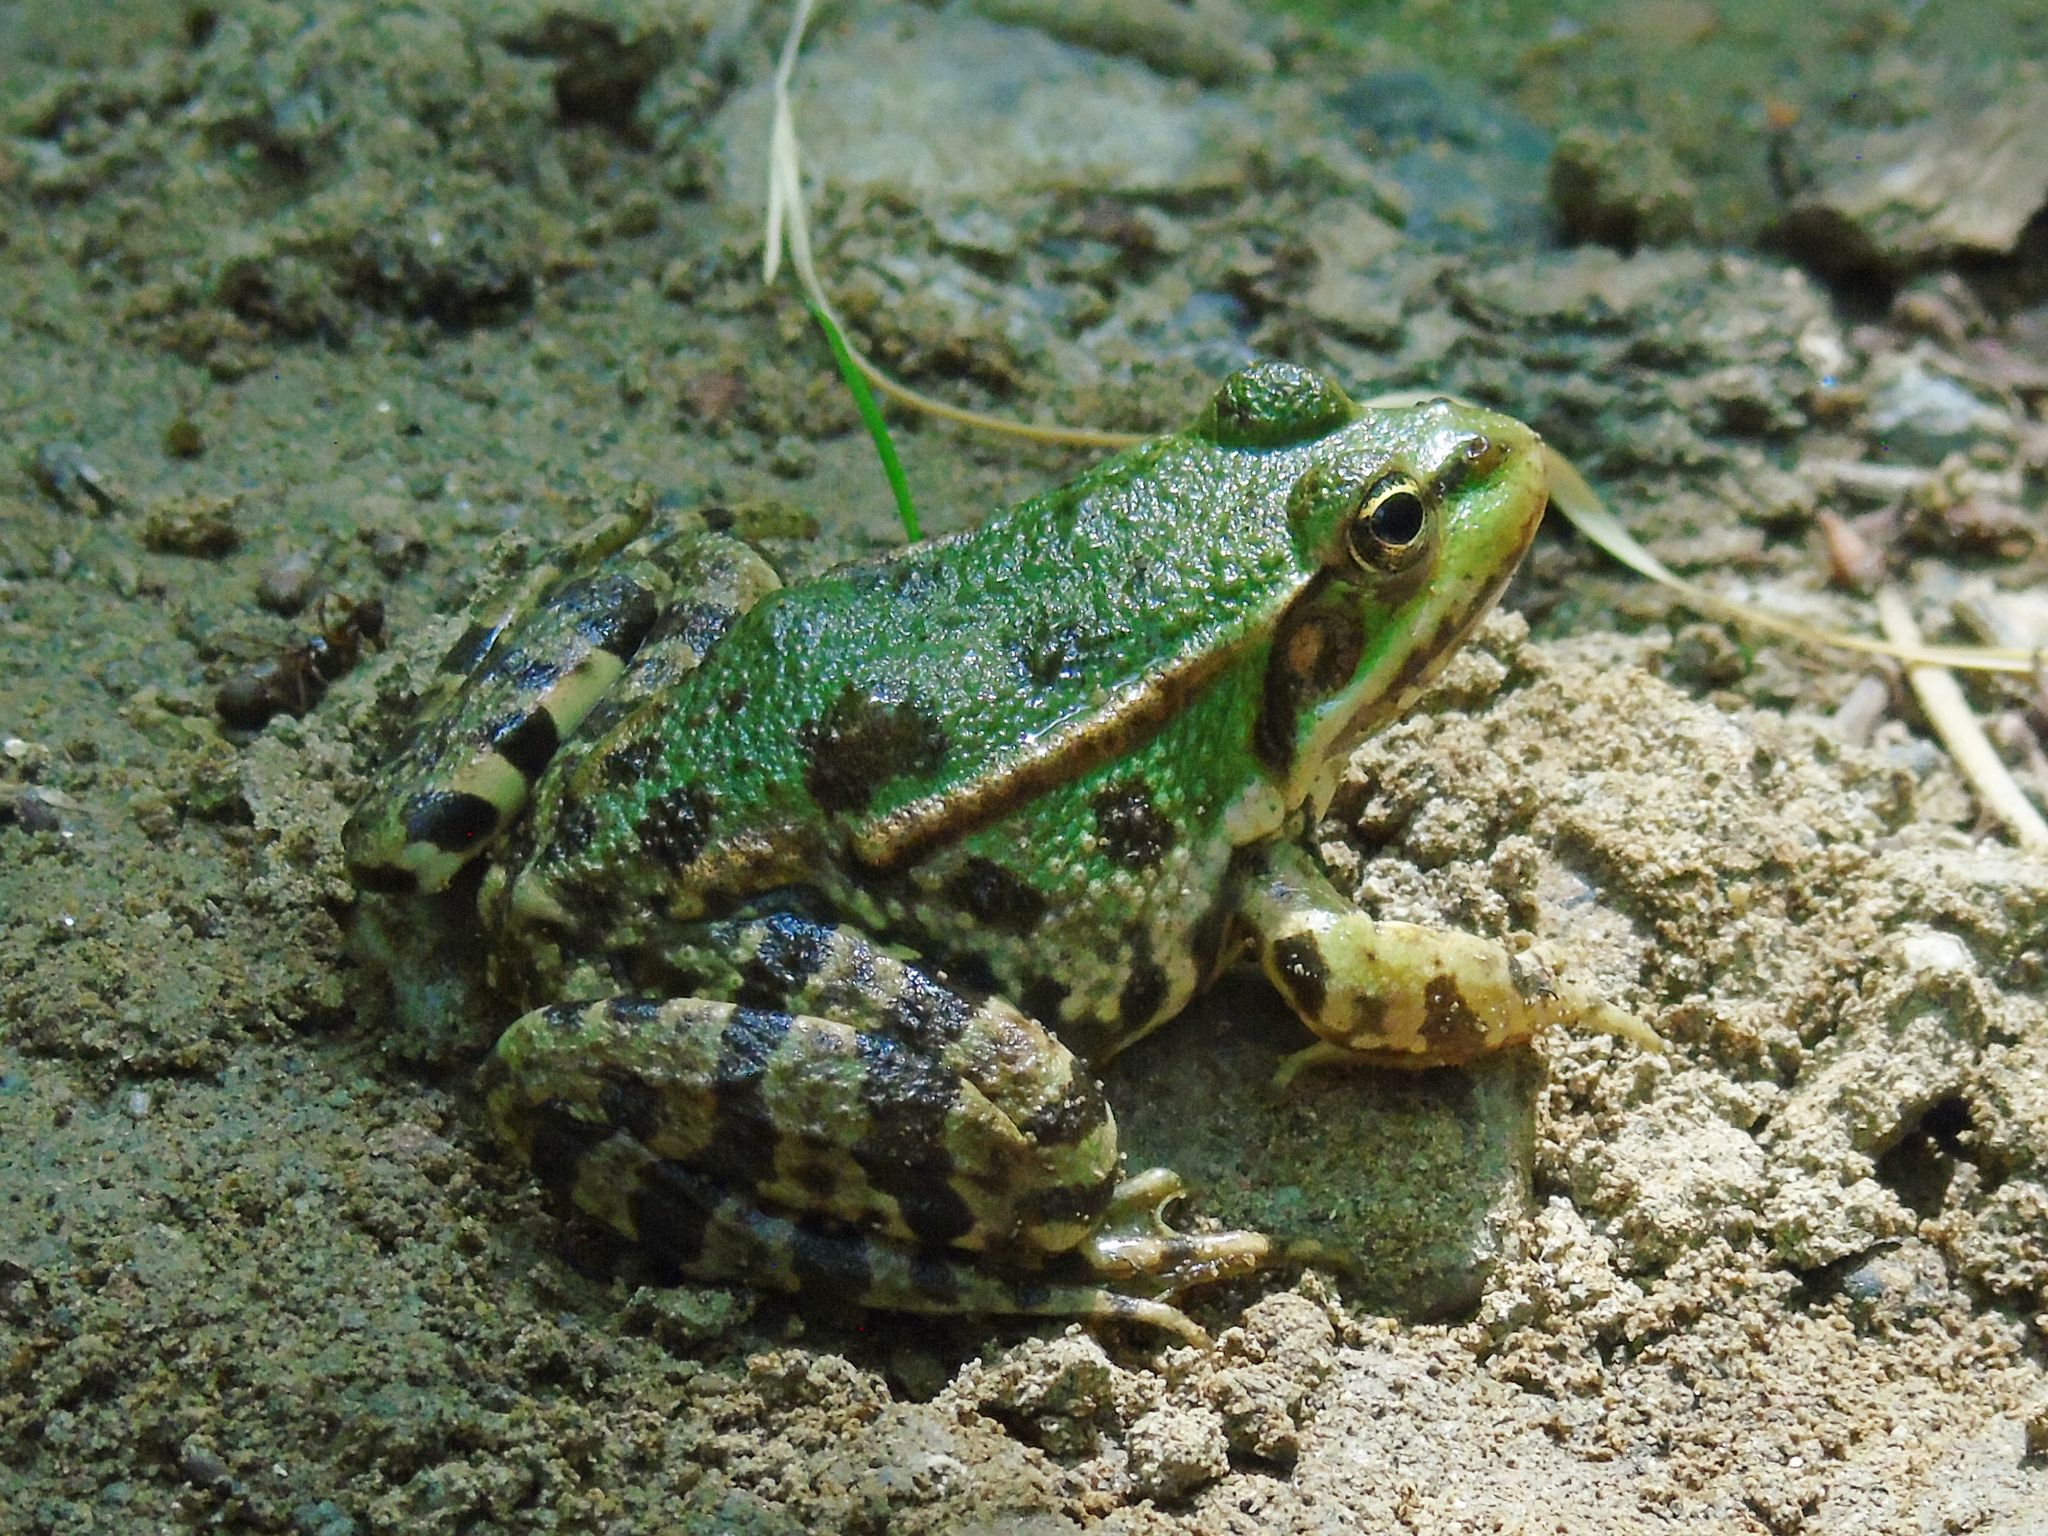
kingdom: Animalia
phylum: Chordata
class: Amphibia
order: Anura
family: Ranidae
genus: Pelophylax
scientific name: Pelophylax ridibundus
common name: Marsh frog
